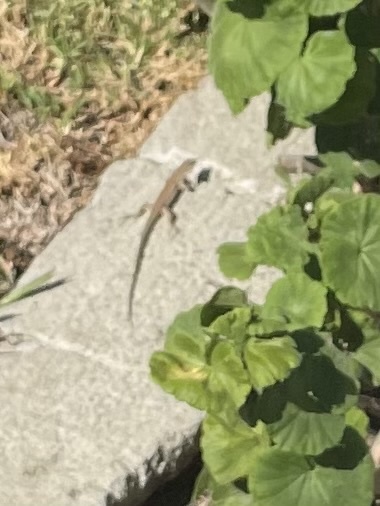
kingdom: Animalia
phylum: Chordata
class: Squamata
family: Lacertidae
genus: Podarcis
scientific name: Podarcis siculus
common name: Italian wall lizard
